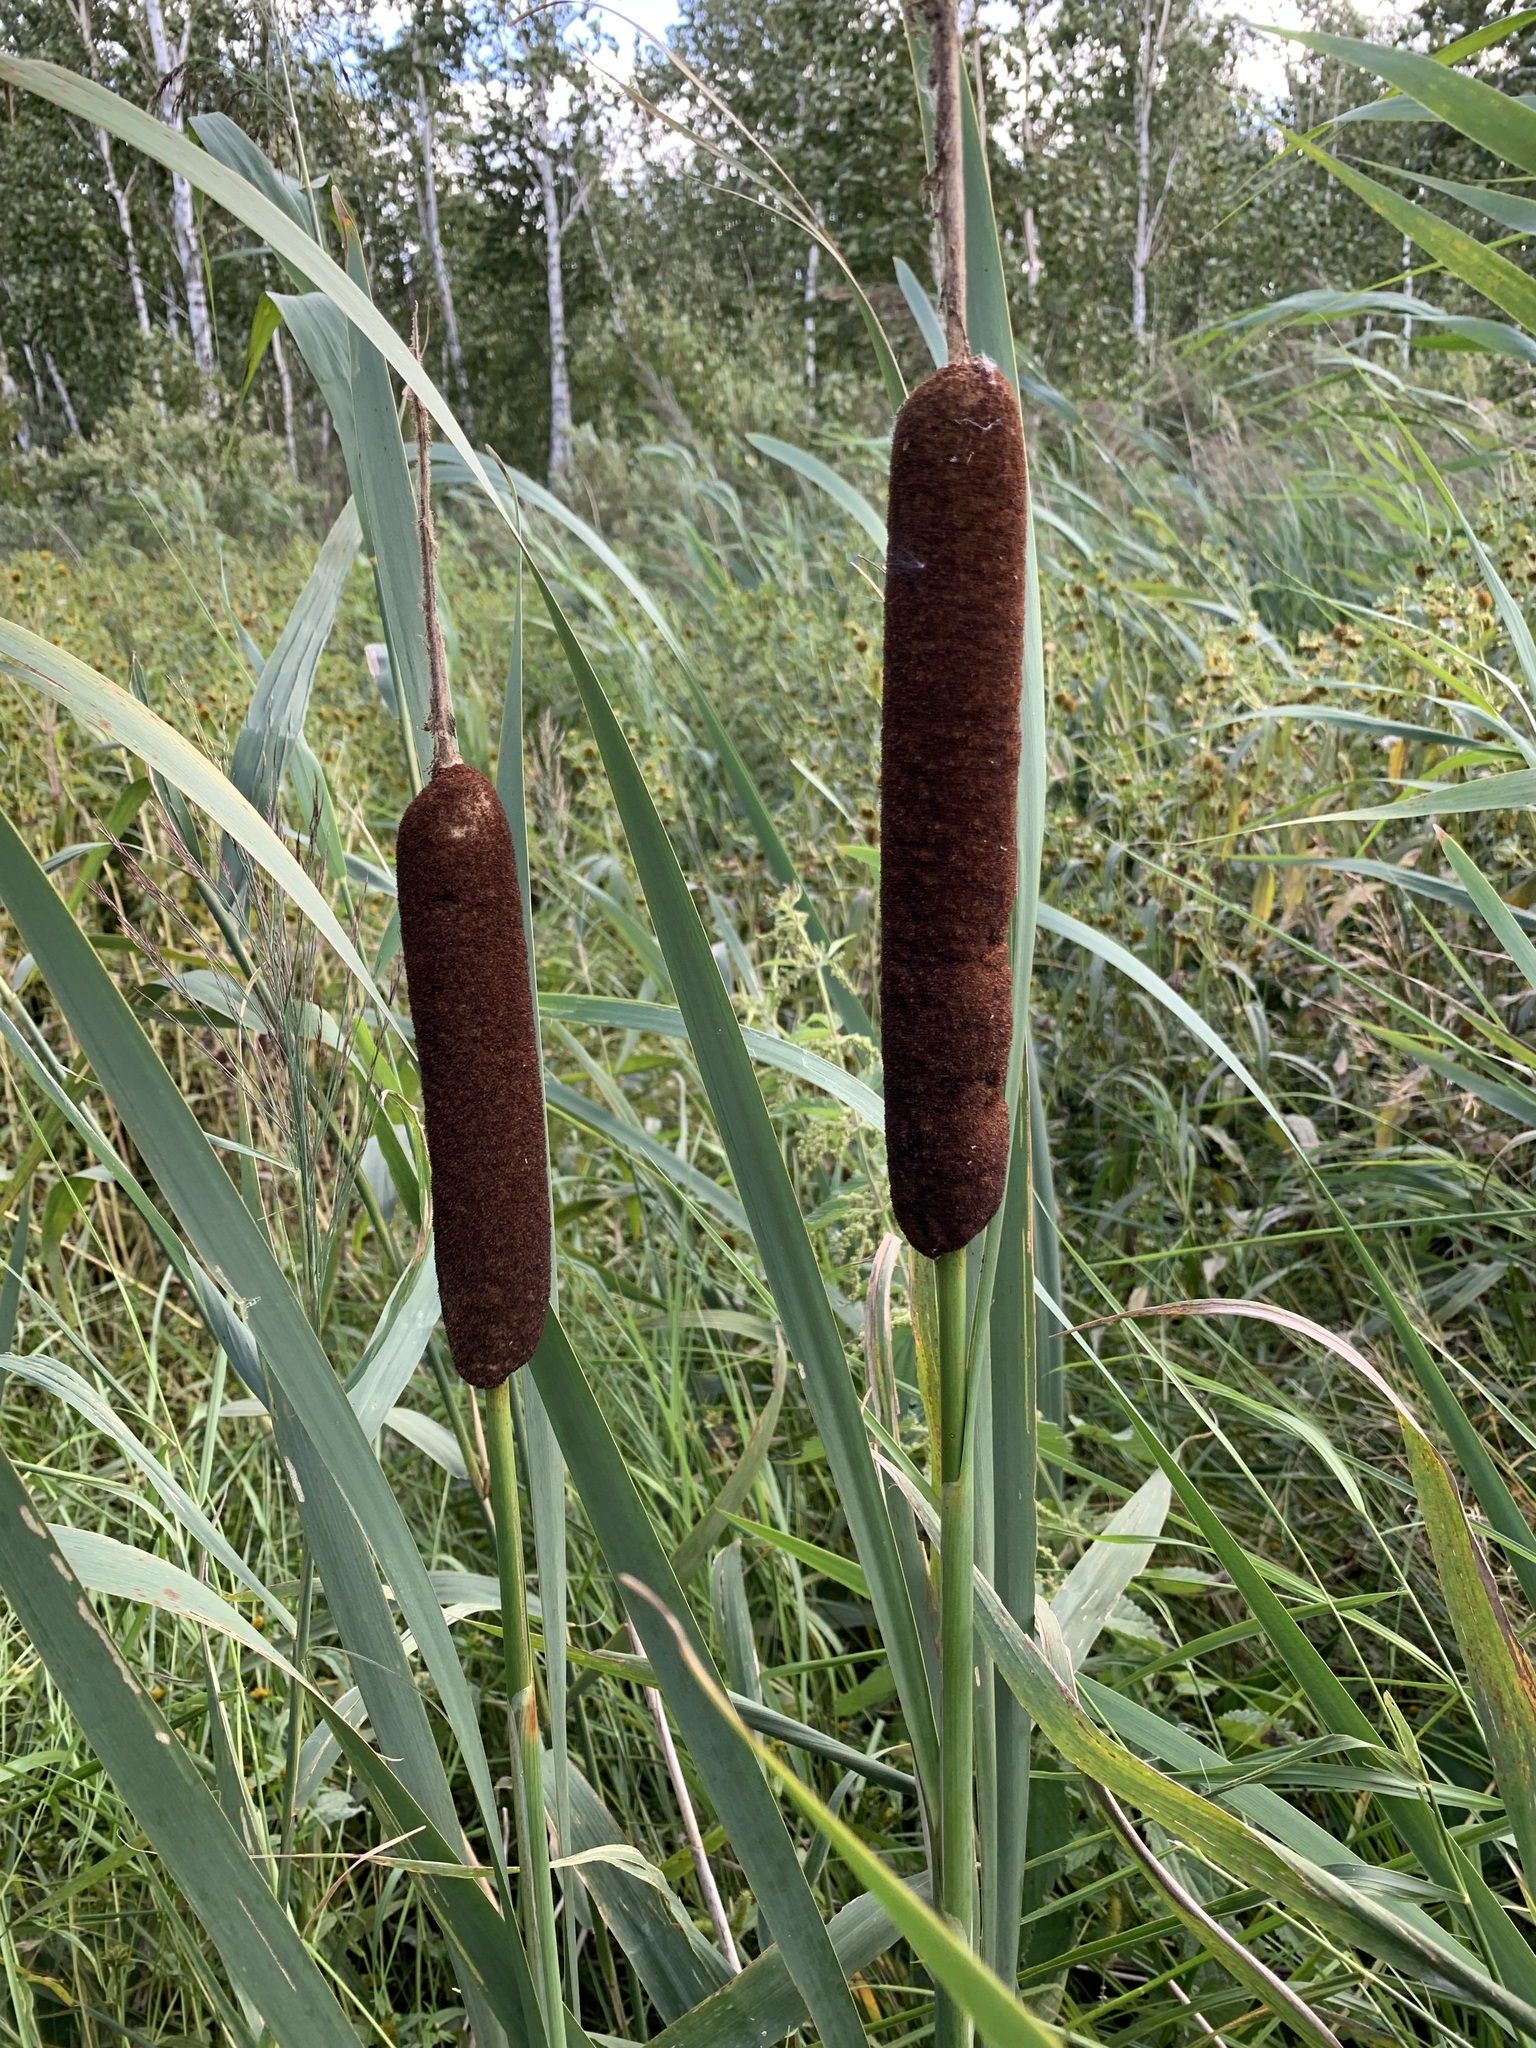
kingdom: Plantae
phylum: Tracheophyta
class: Liliopsida
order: Poales
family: Typhaceae
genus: Typha
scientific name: Typha latifolia
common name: Broadleaf cattail
